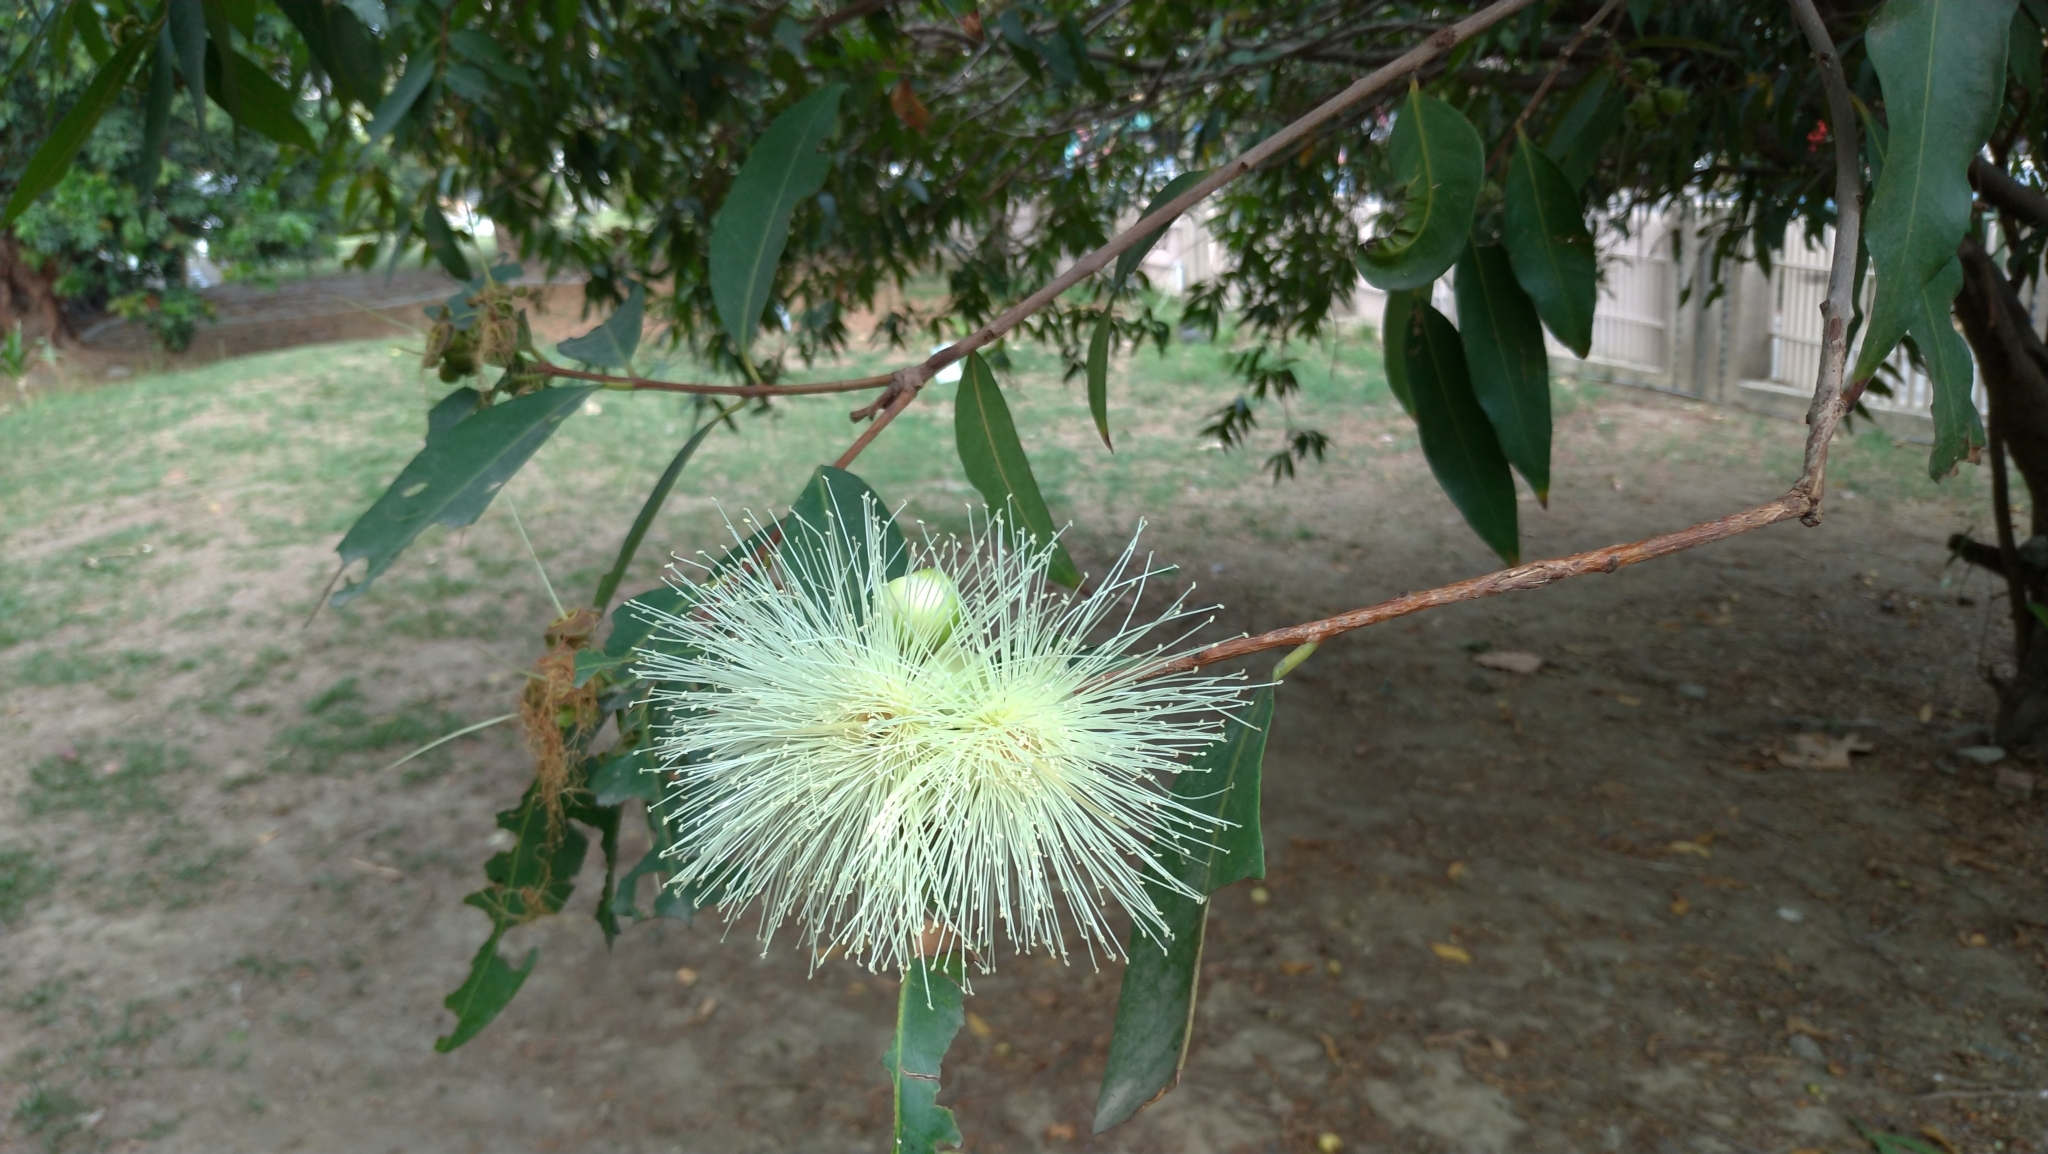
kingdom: Plantae
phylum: Tracheophyta
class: Magnoliopsida
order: Myrtales
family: Myrtaceae
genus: Syzygium
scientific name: Syzygium jambos
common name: Malabar plum
